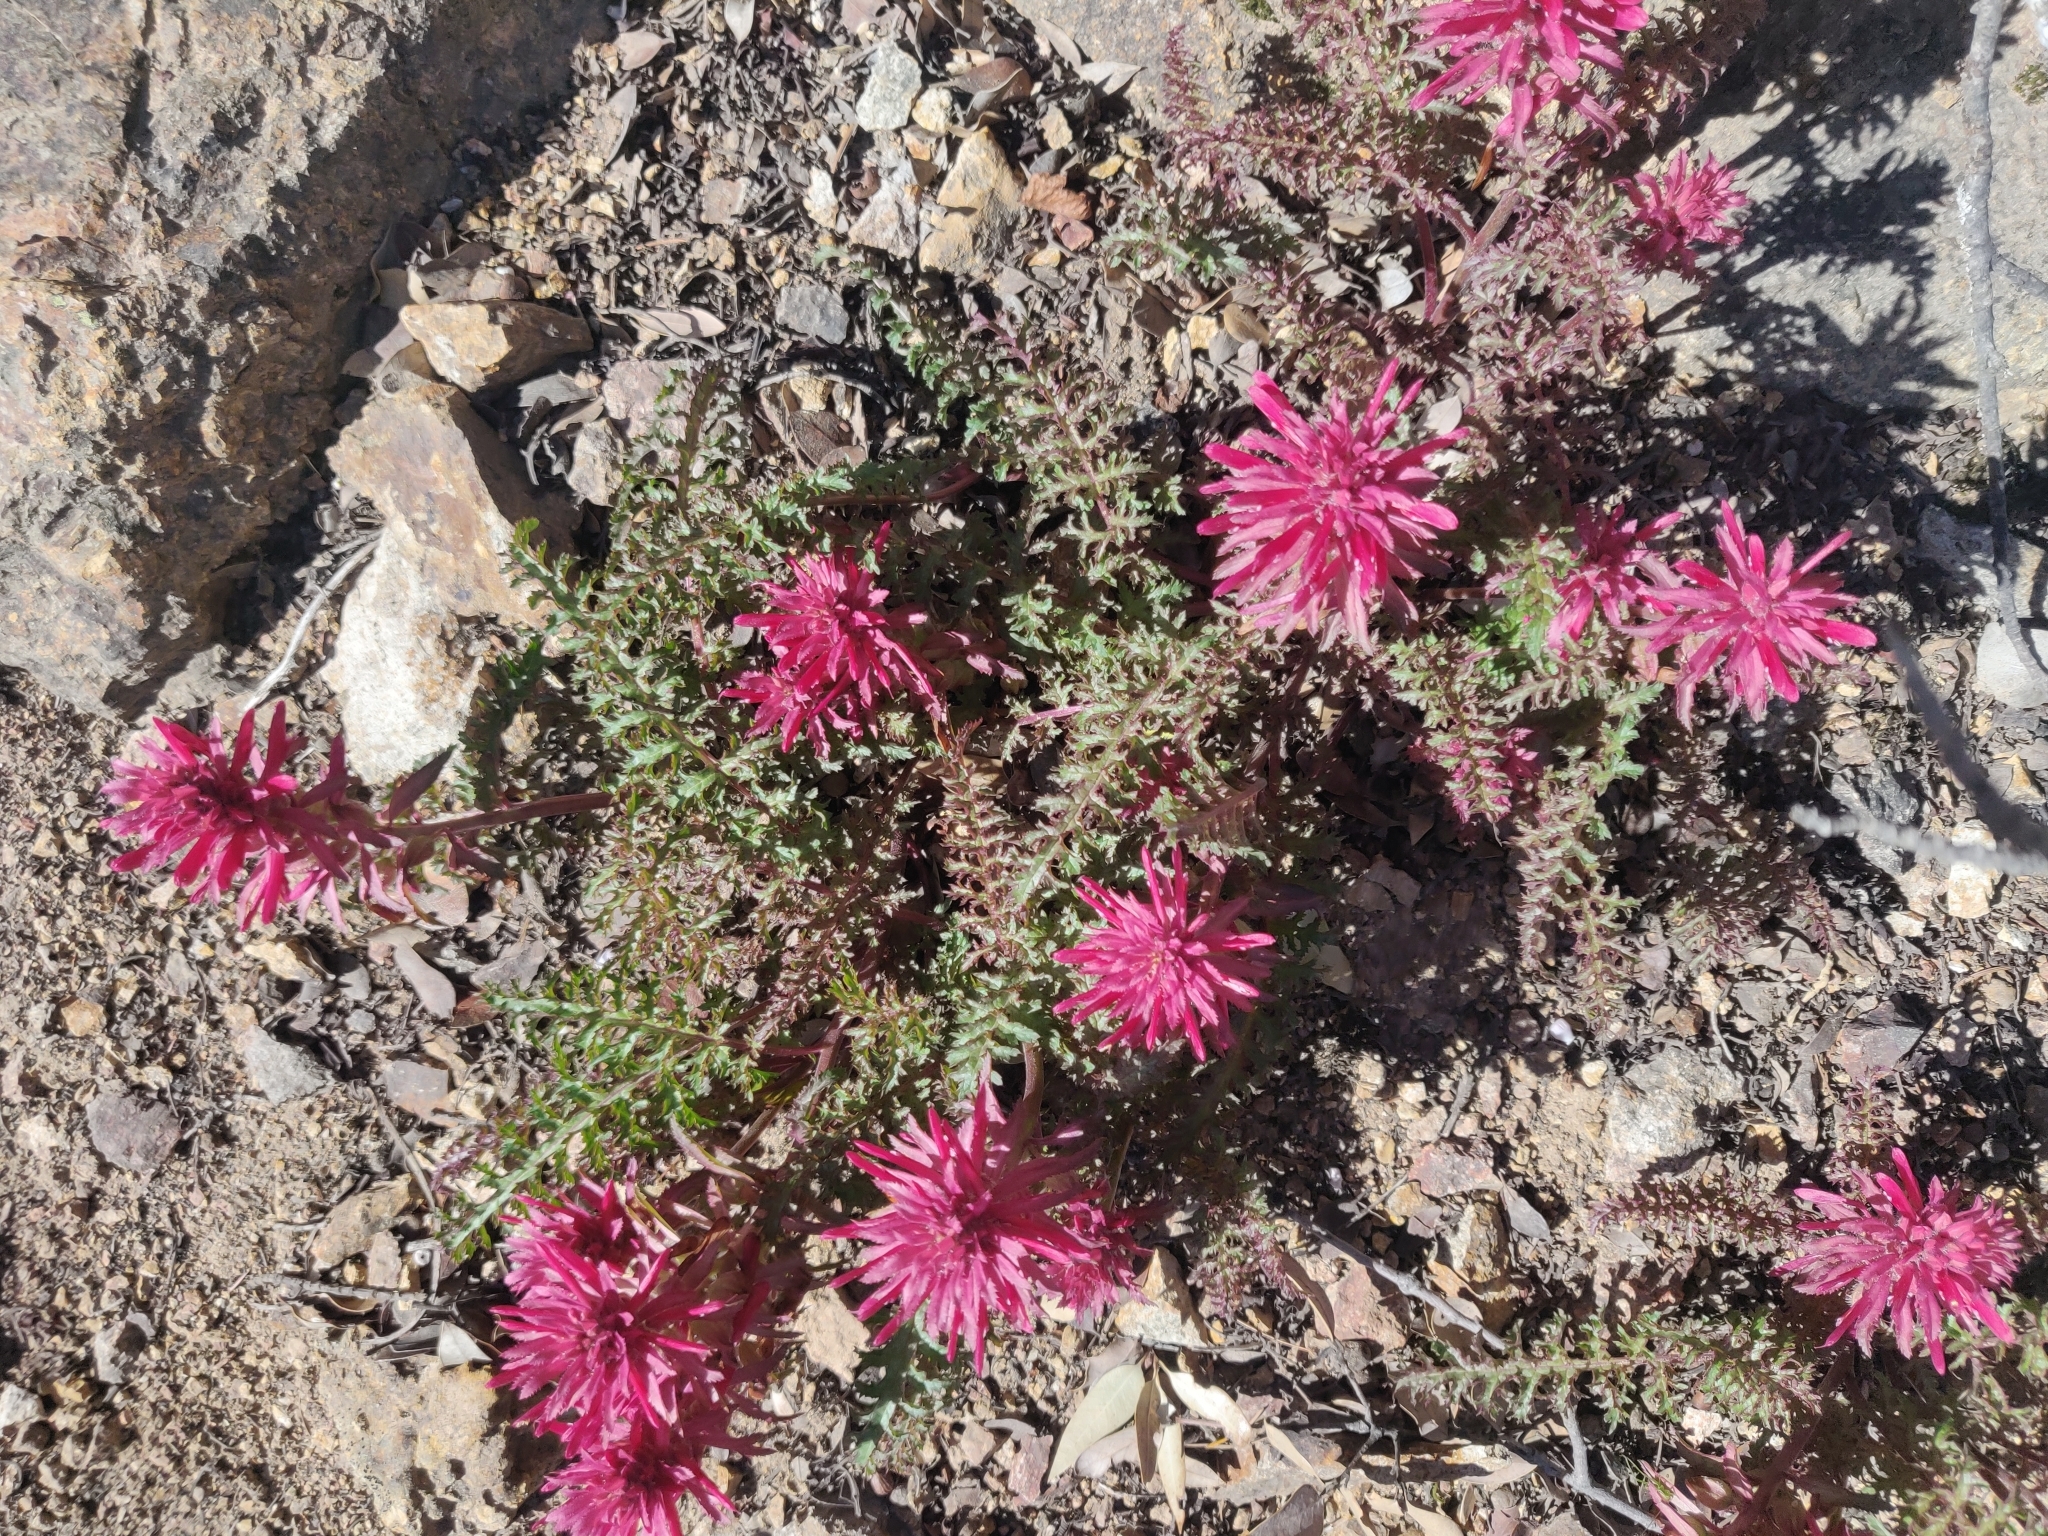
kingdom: Plantae
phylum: Tracheophyta
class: Magnoliopsida
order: Lamiales
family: Orobanchaceae
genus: Pedicularis
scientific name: Pedicularis densiflora
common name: Indian warrior
